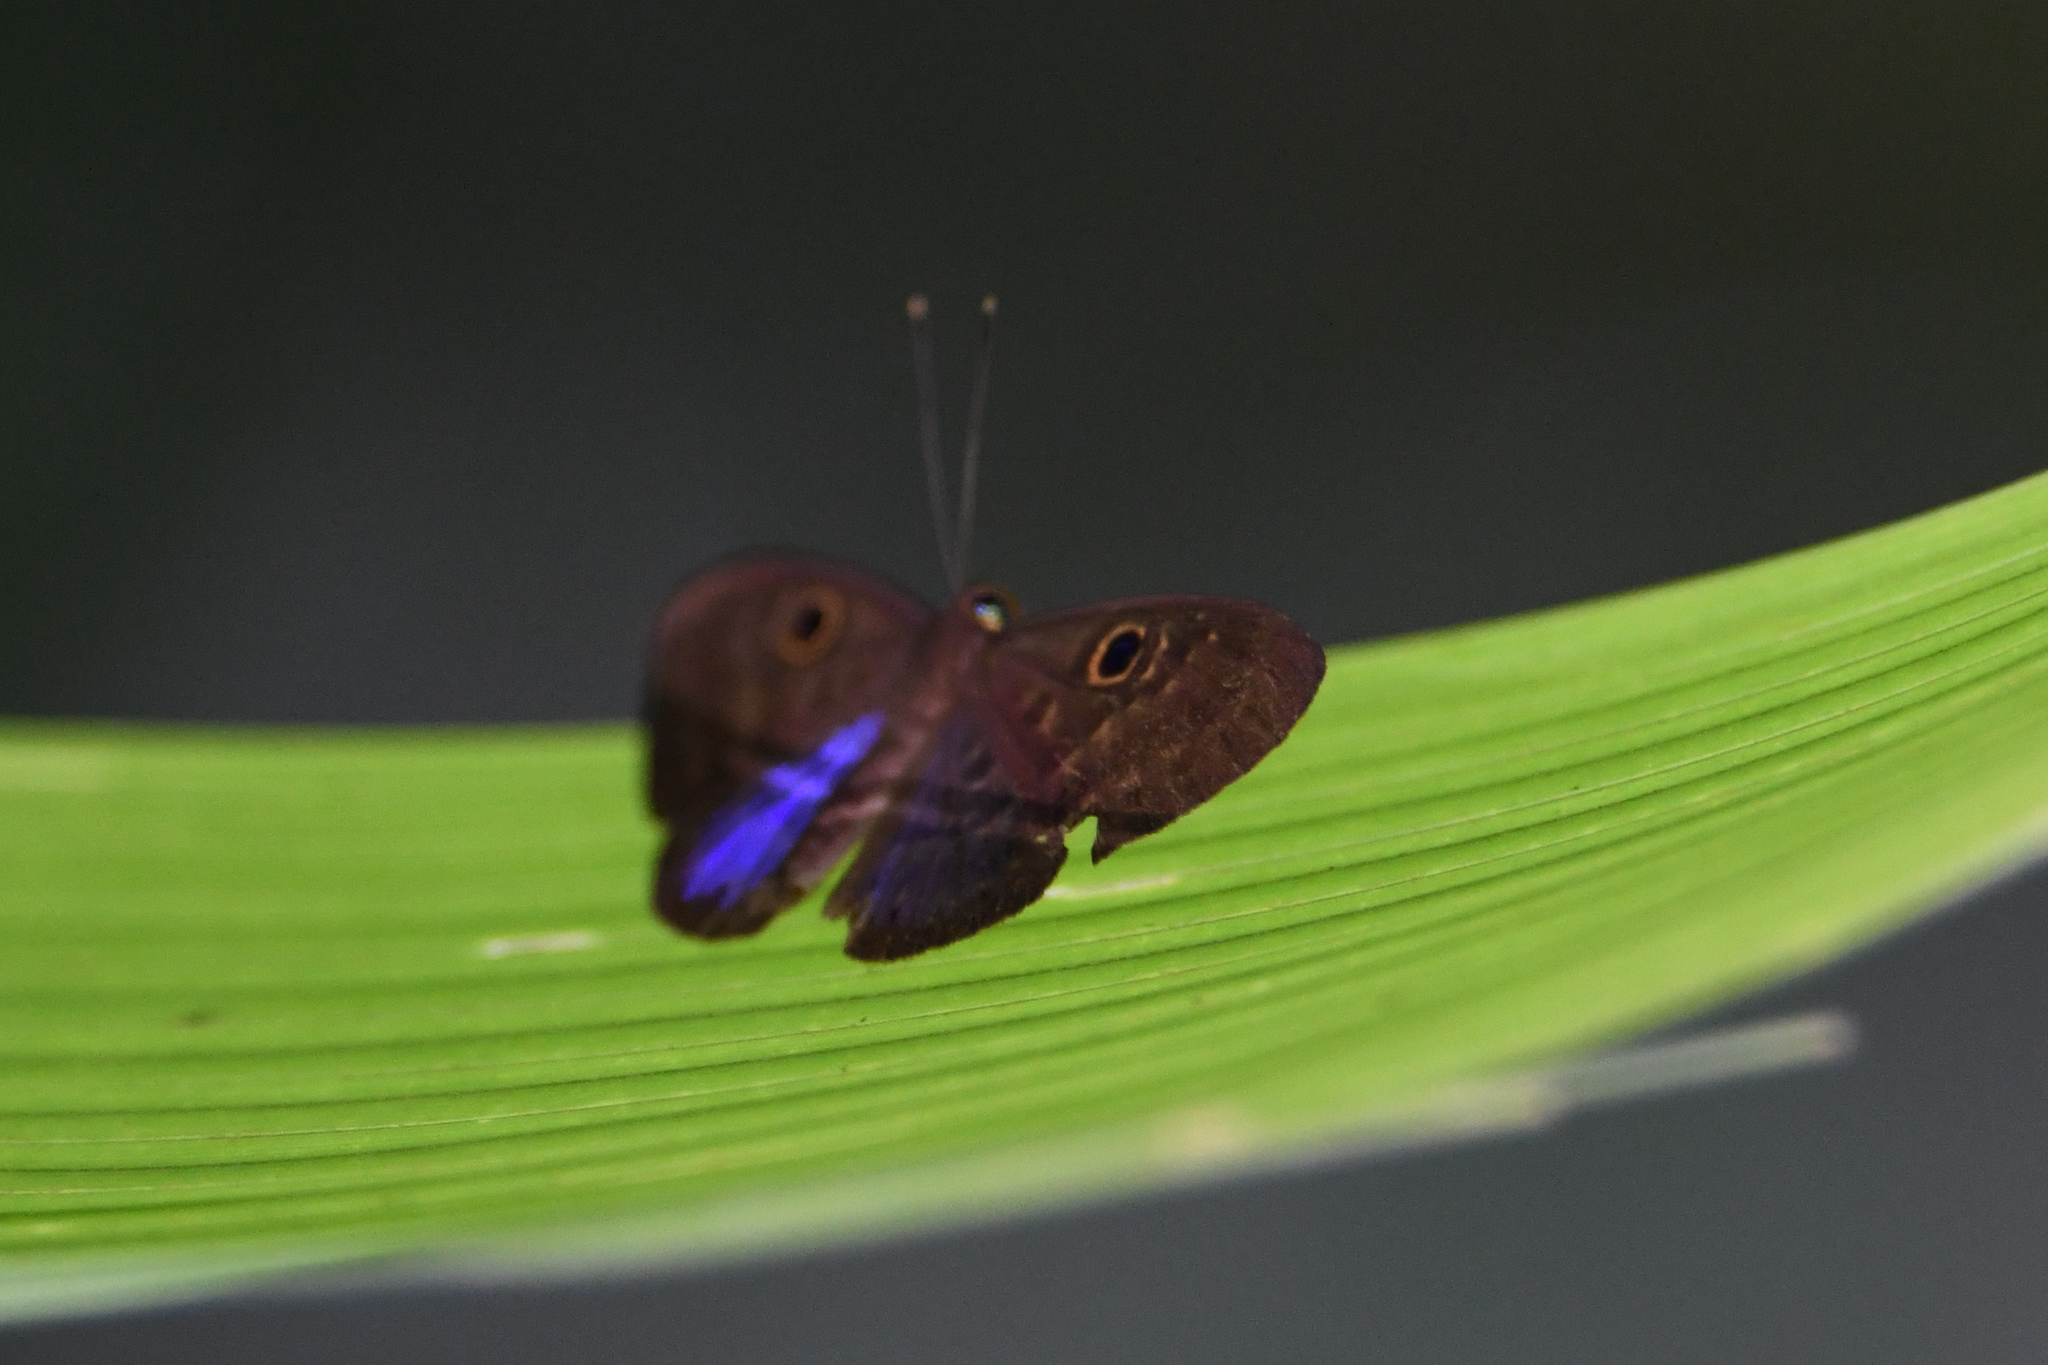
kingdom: Animalia
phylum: Cnidaria
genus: Eurybia
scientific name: Eurybia lycisca
